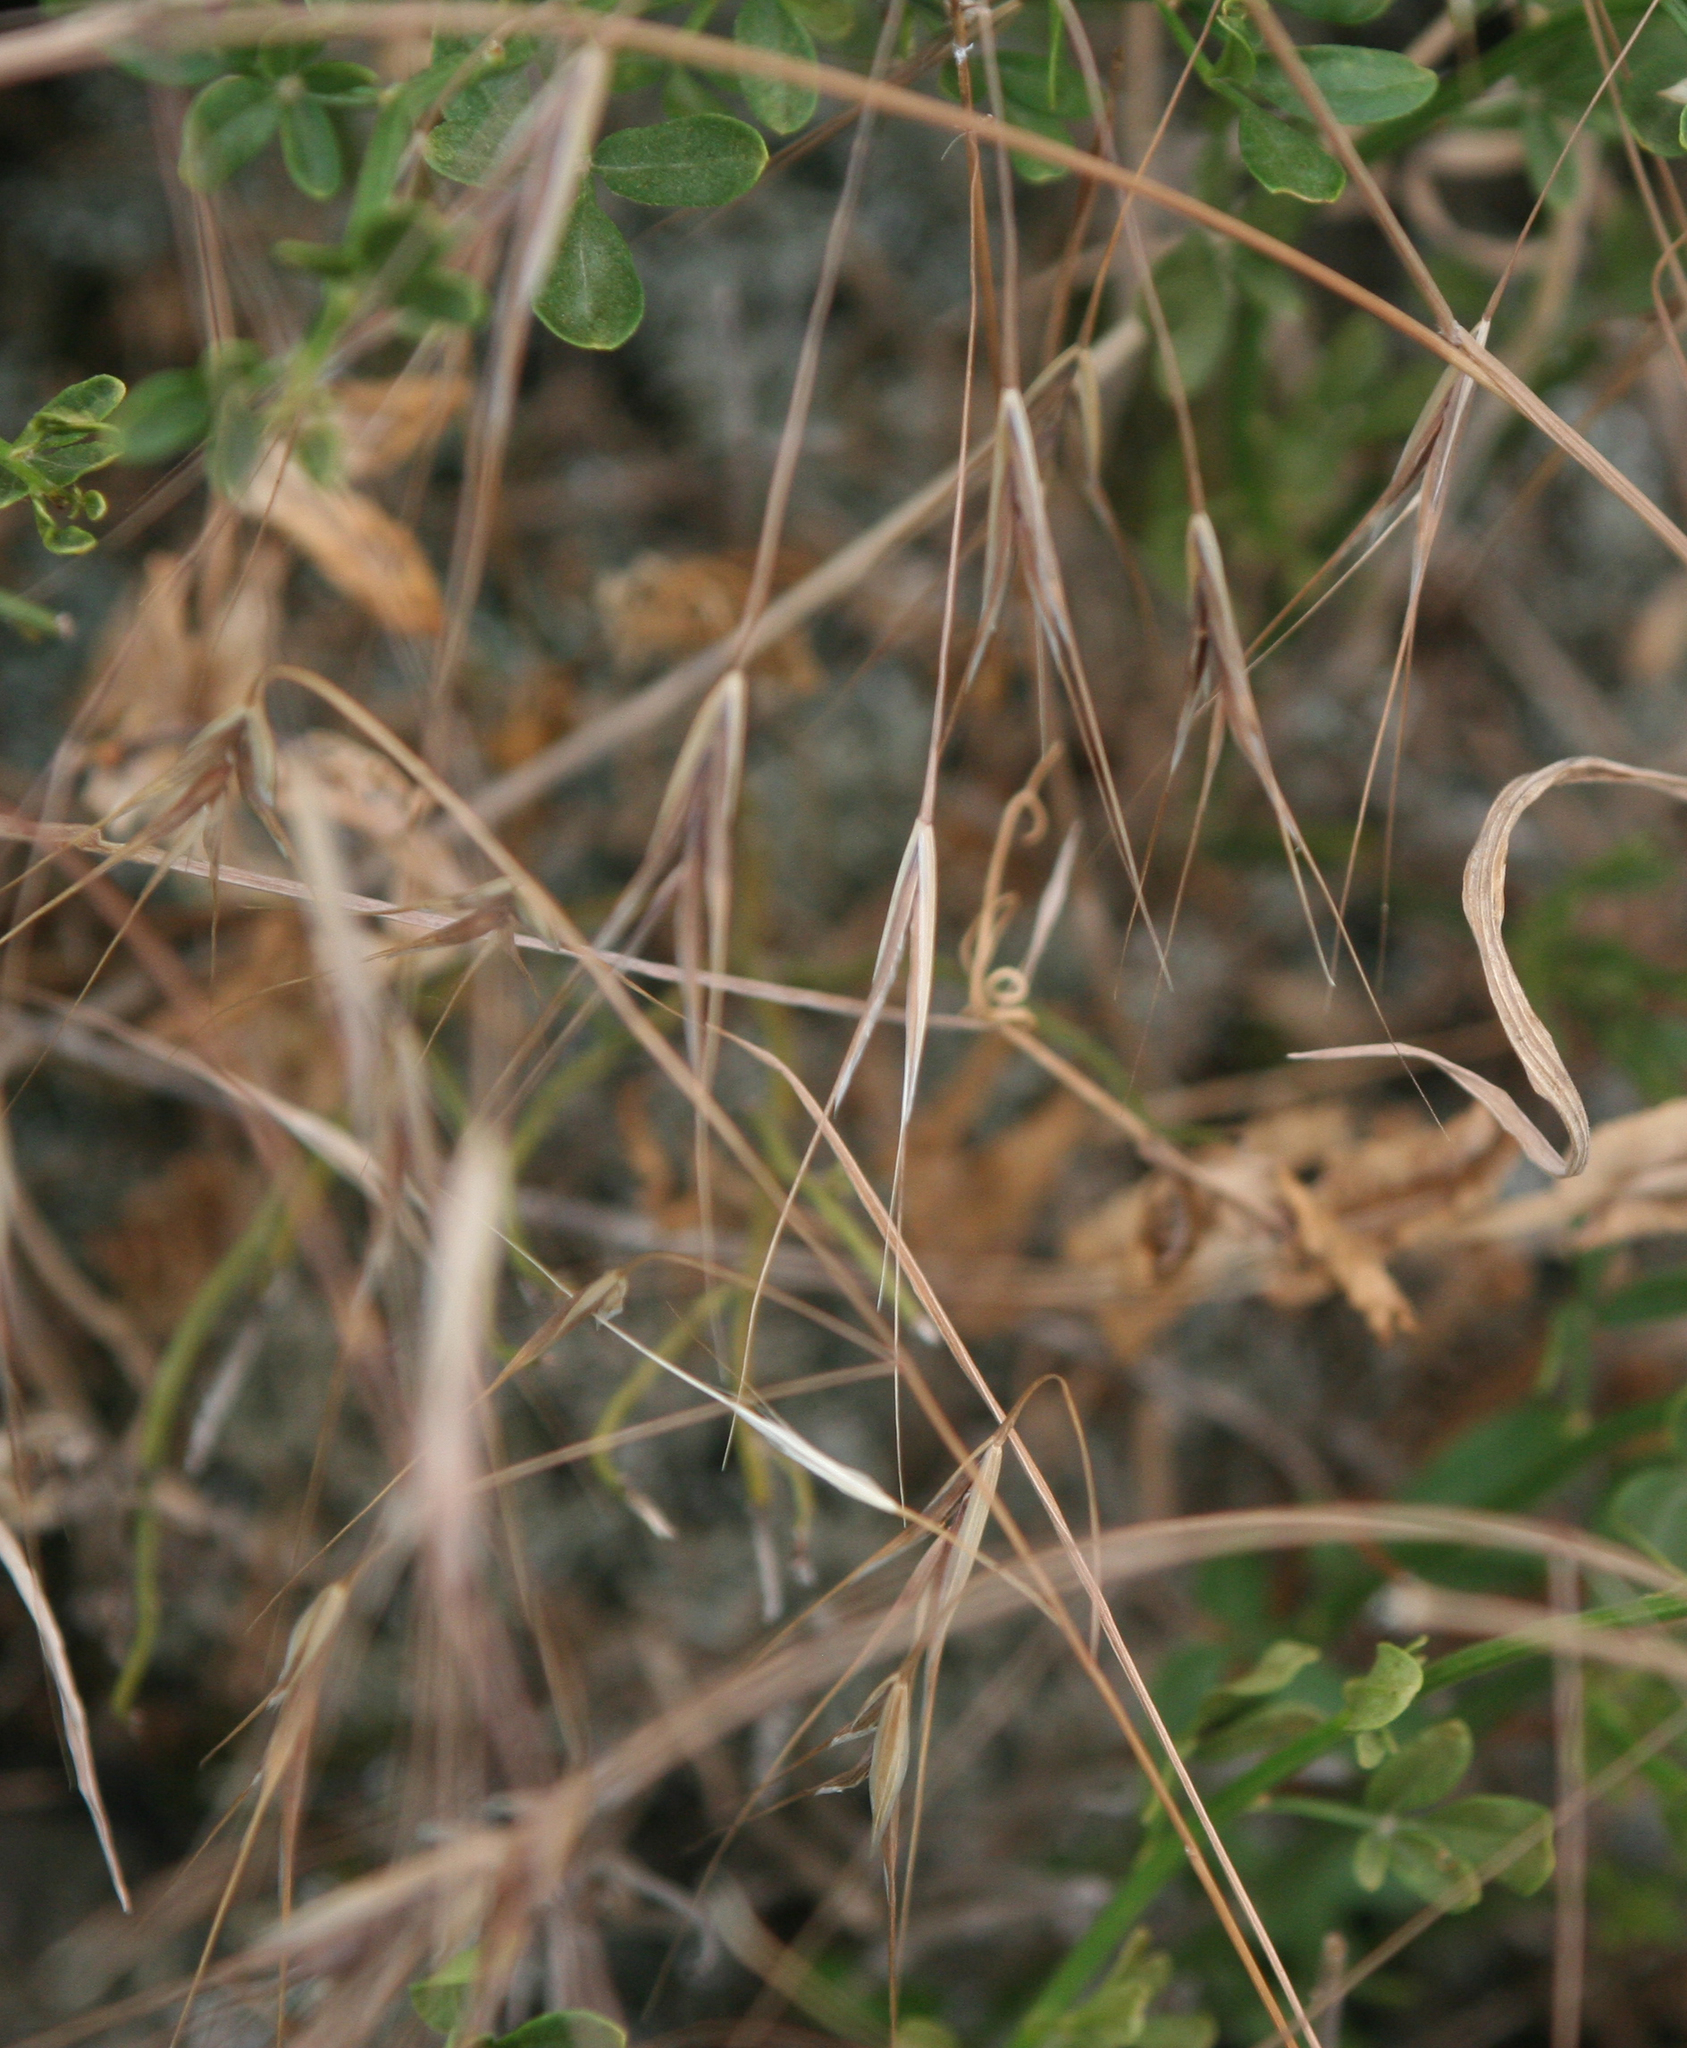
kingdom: Plantae
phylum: Tracheophyta
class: Liliopsida
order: Poales
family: Poaceae
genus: Bromus
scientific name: Bromus sterilis
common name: Poverty brome
